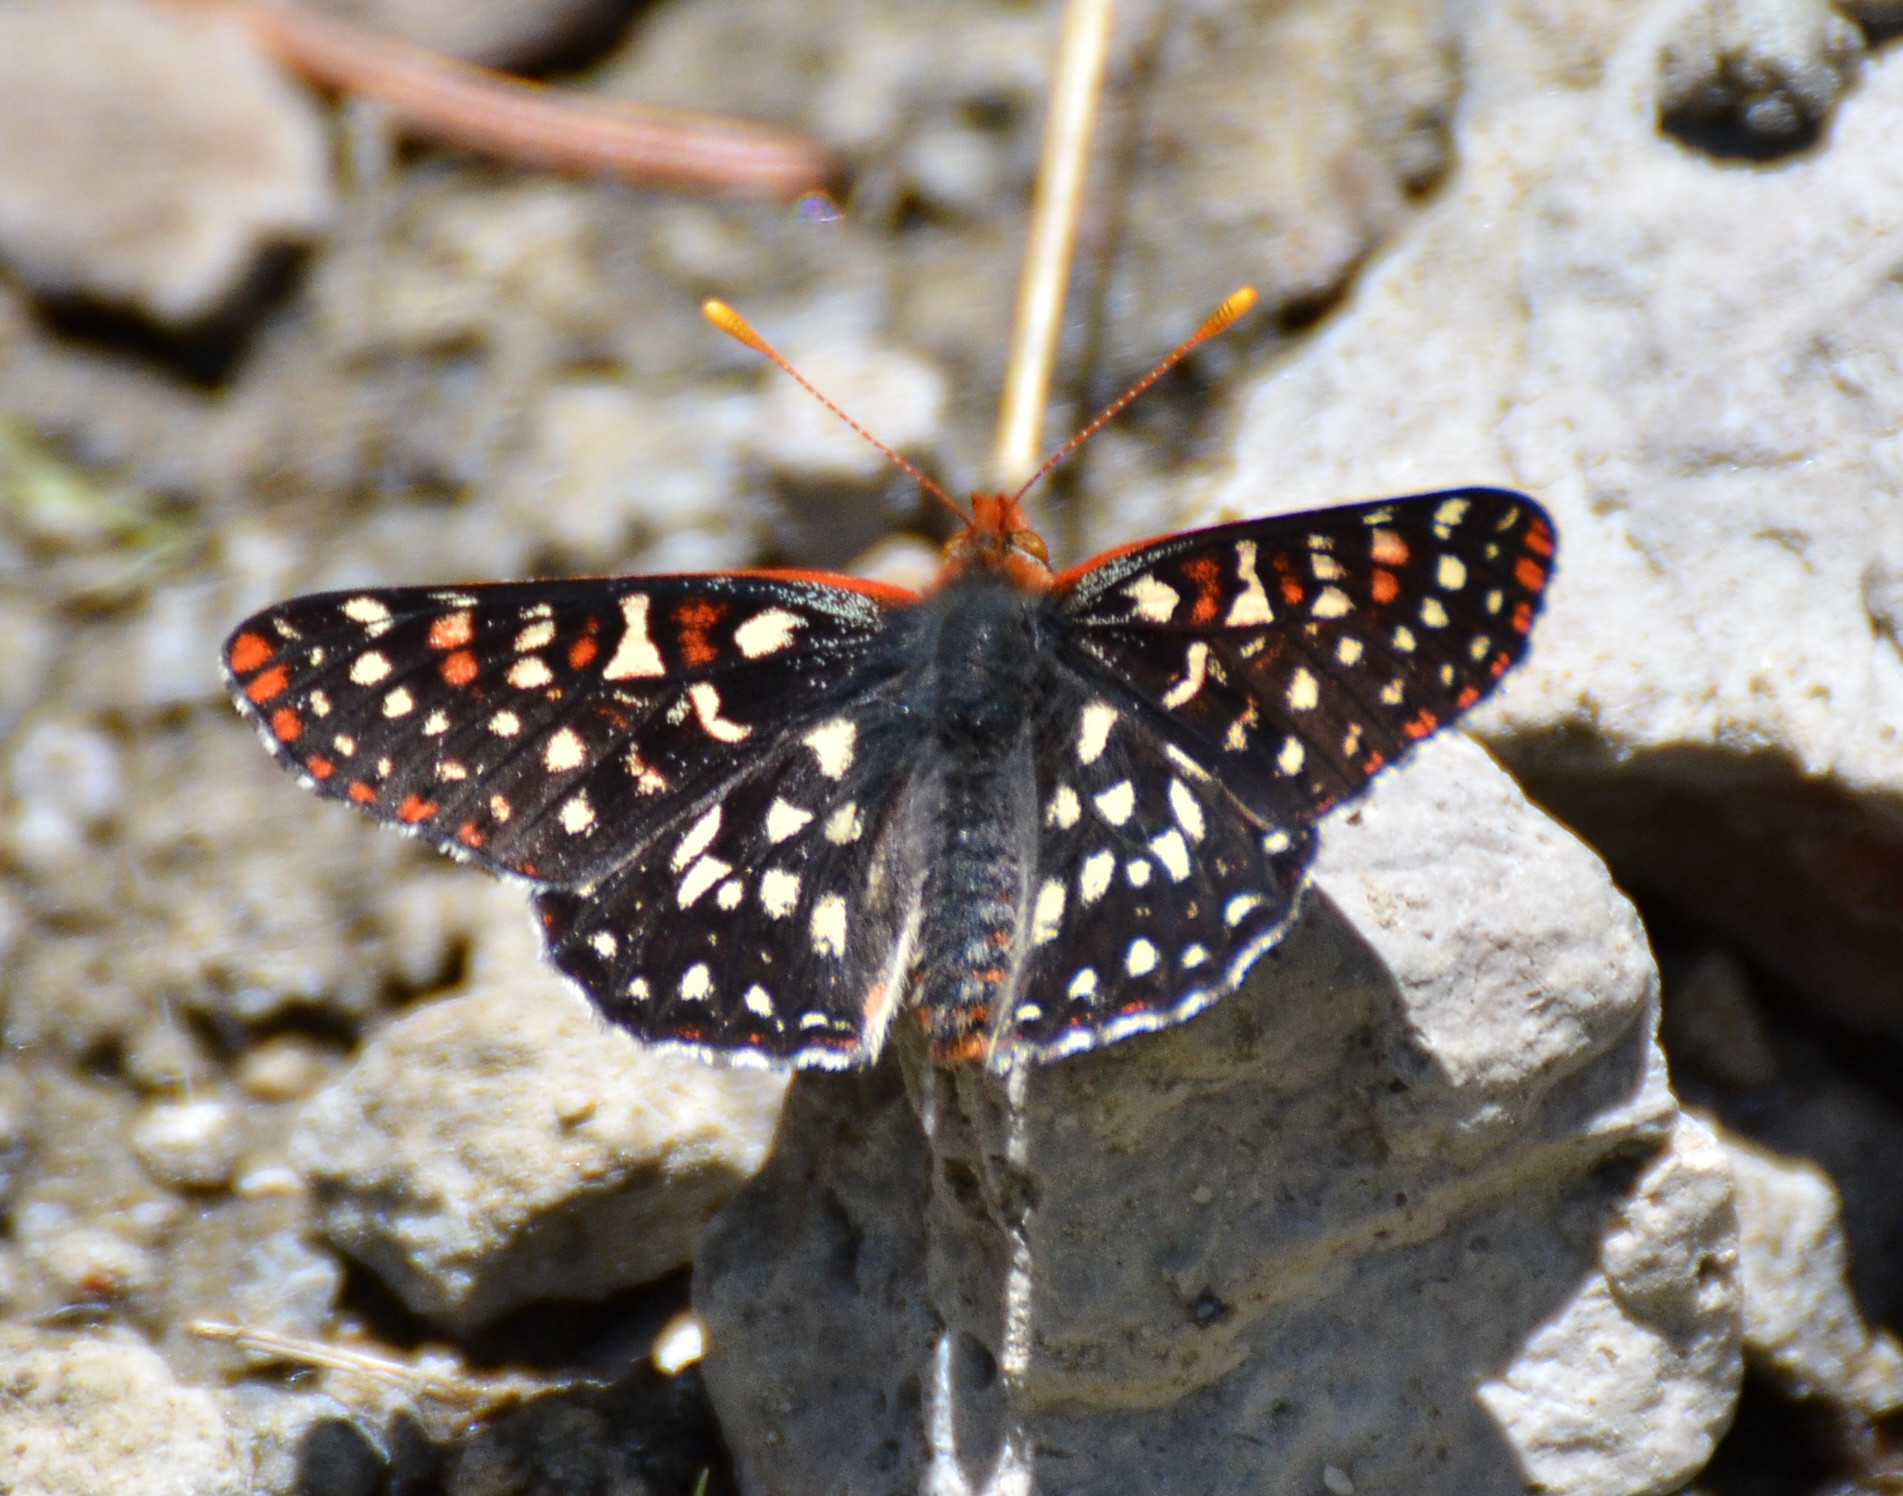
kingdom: Animalia
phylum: Arthropoda
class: Insecta
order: Lepidoptera
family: Nymphalidae
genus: Occidryas
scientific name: Occidryas chalcedona
